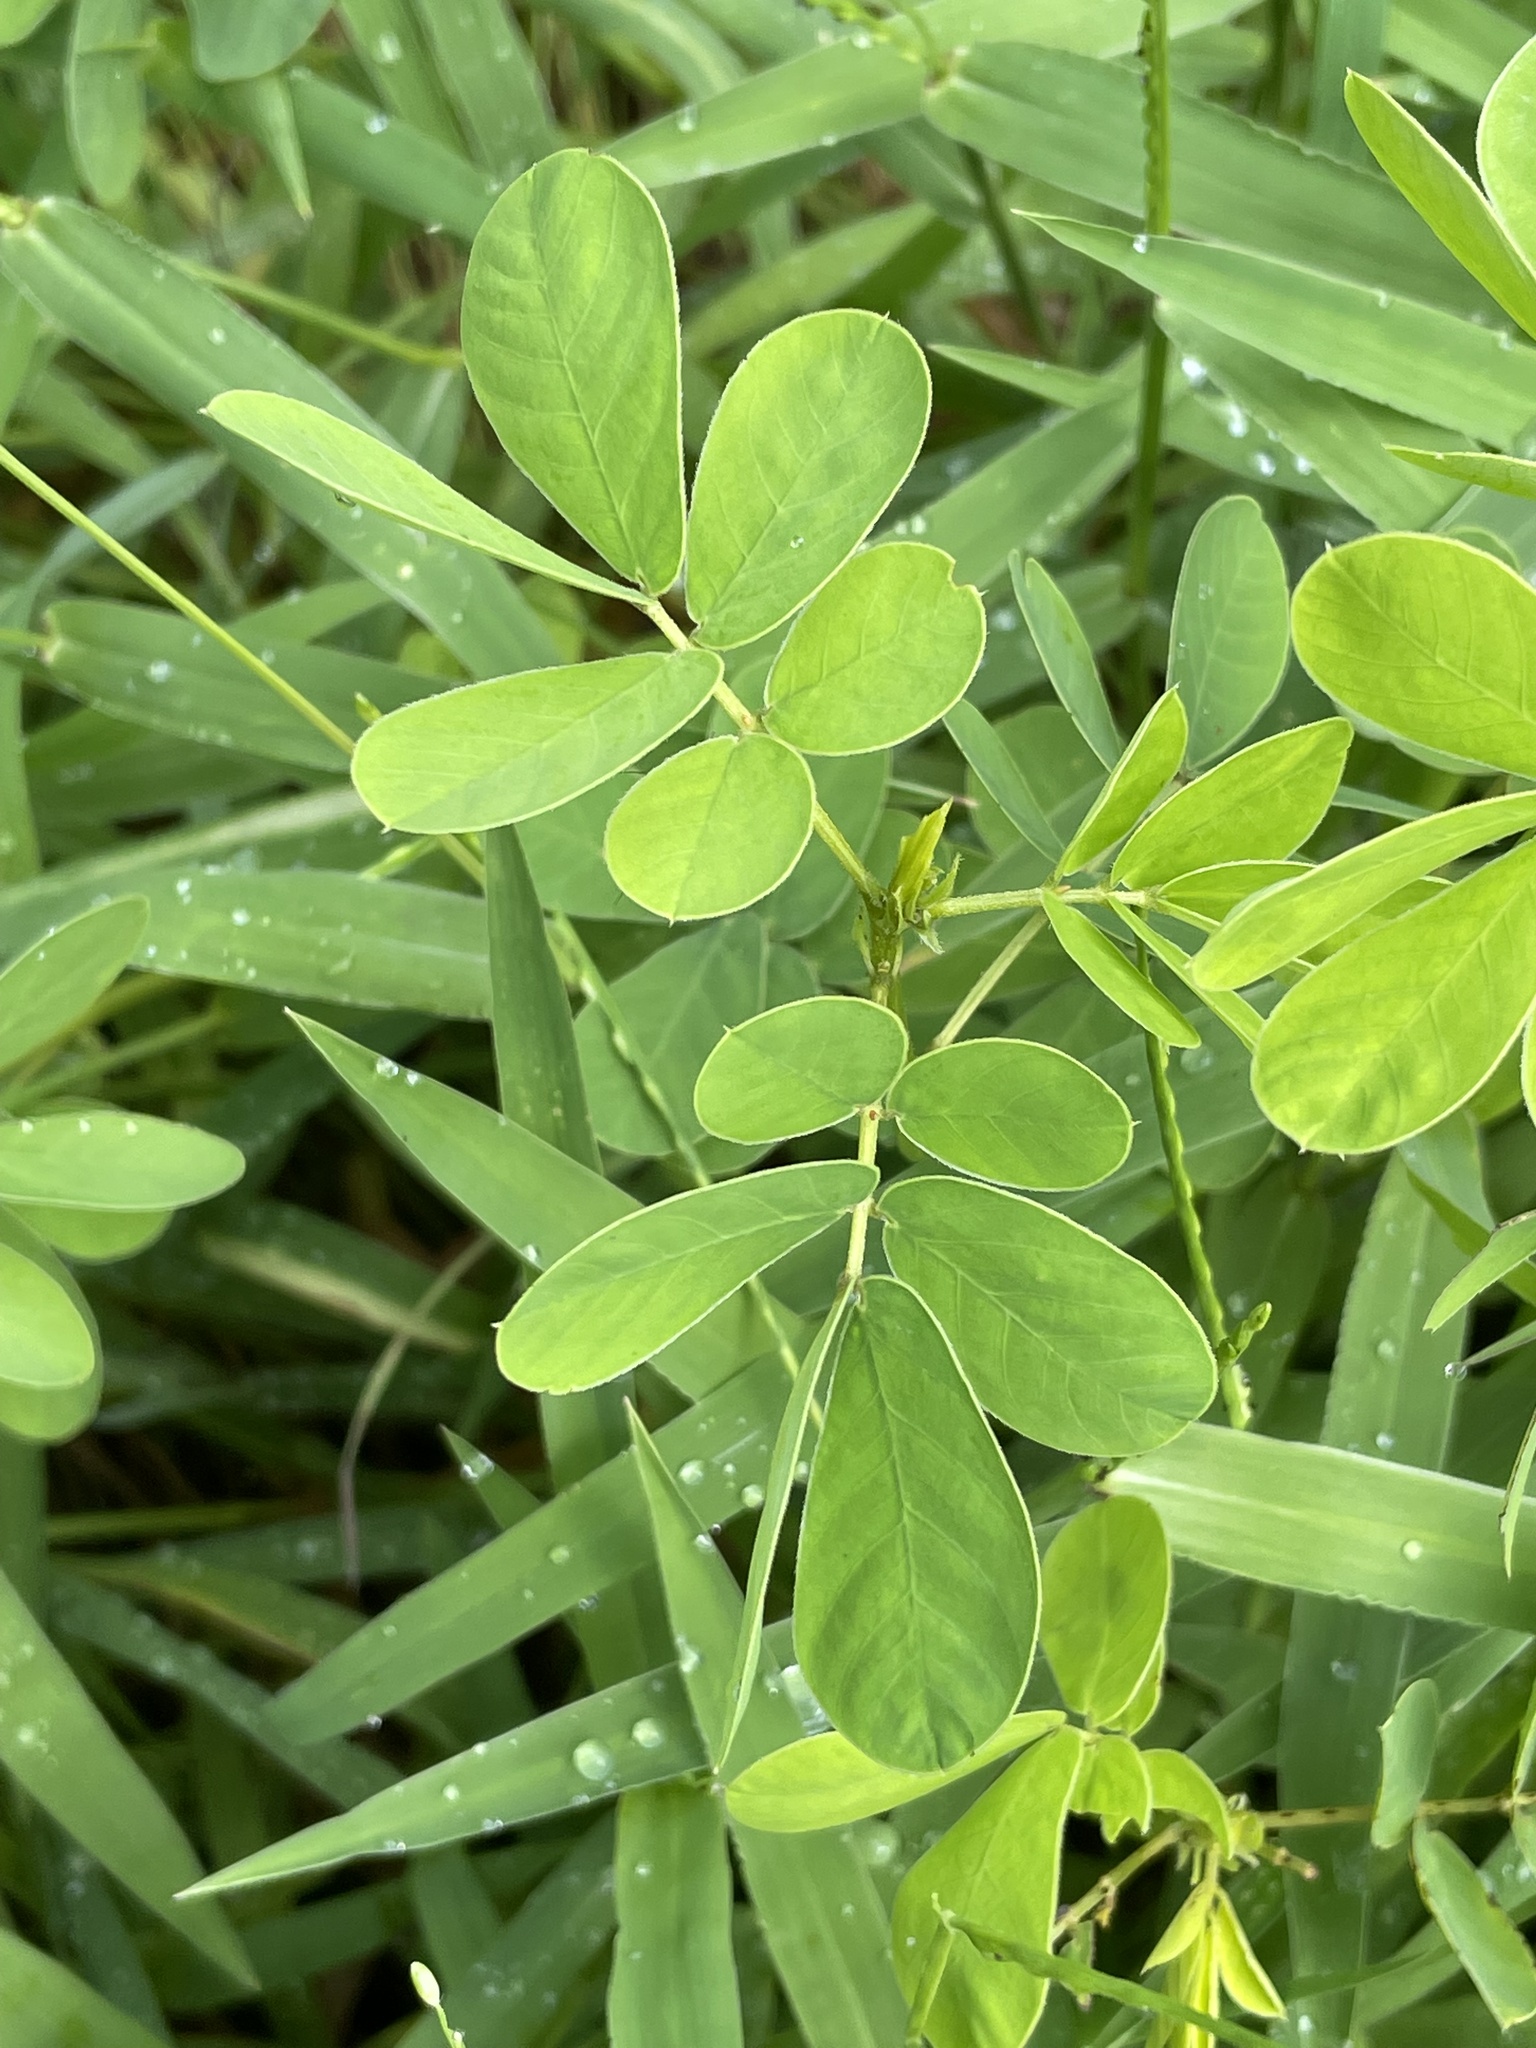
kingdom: Plantae
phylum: Tracheophyta
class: Magnoliopsida
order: Fabales
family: Fabaceae
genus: Senna
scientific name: Senna obtusifolia
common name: Java-bean
